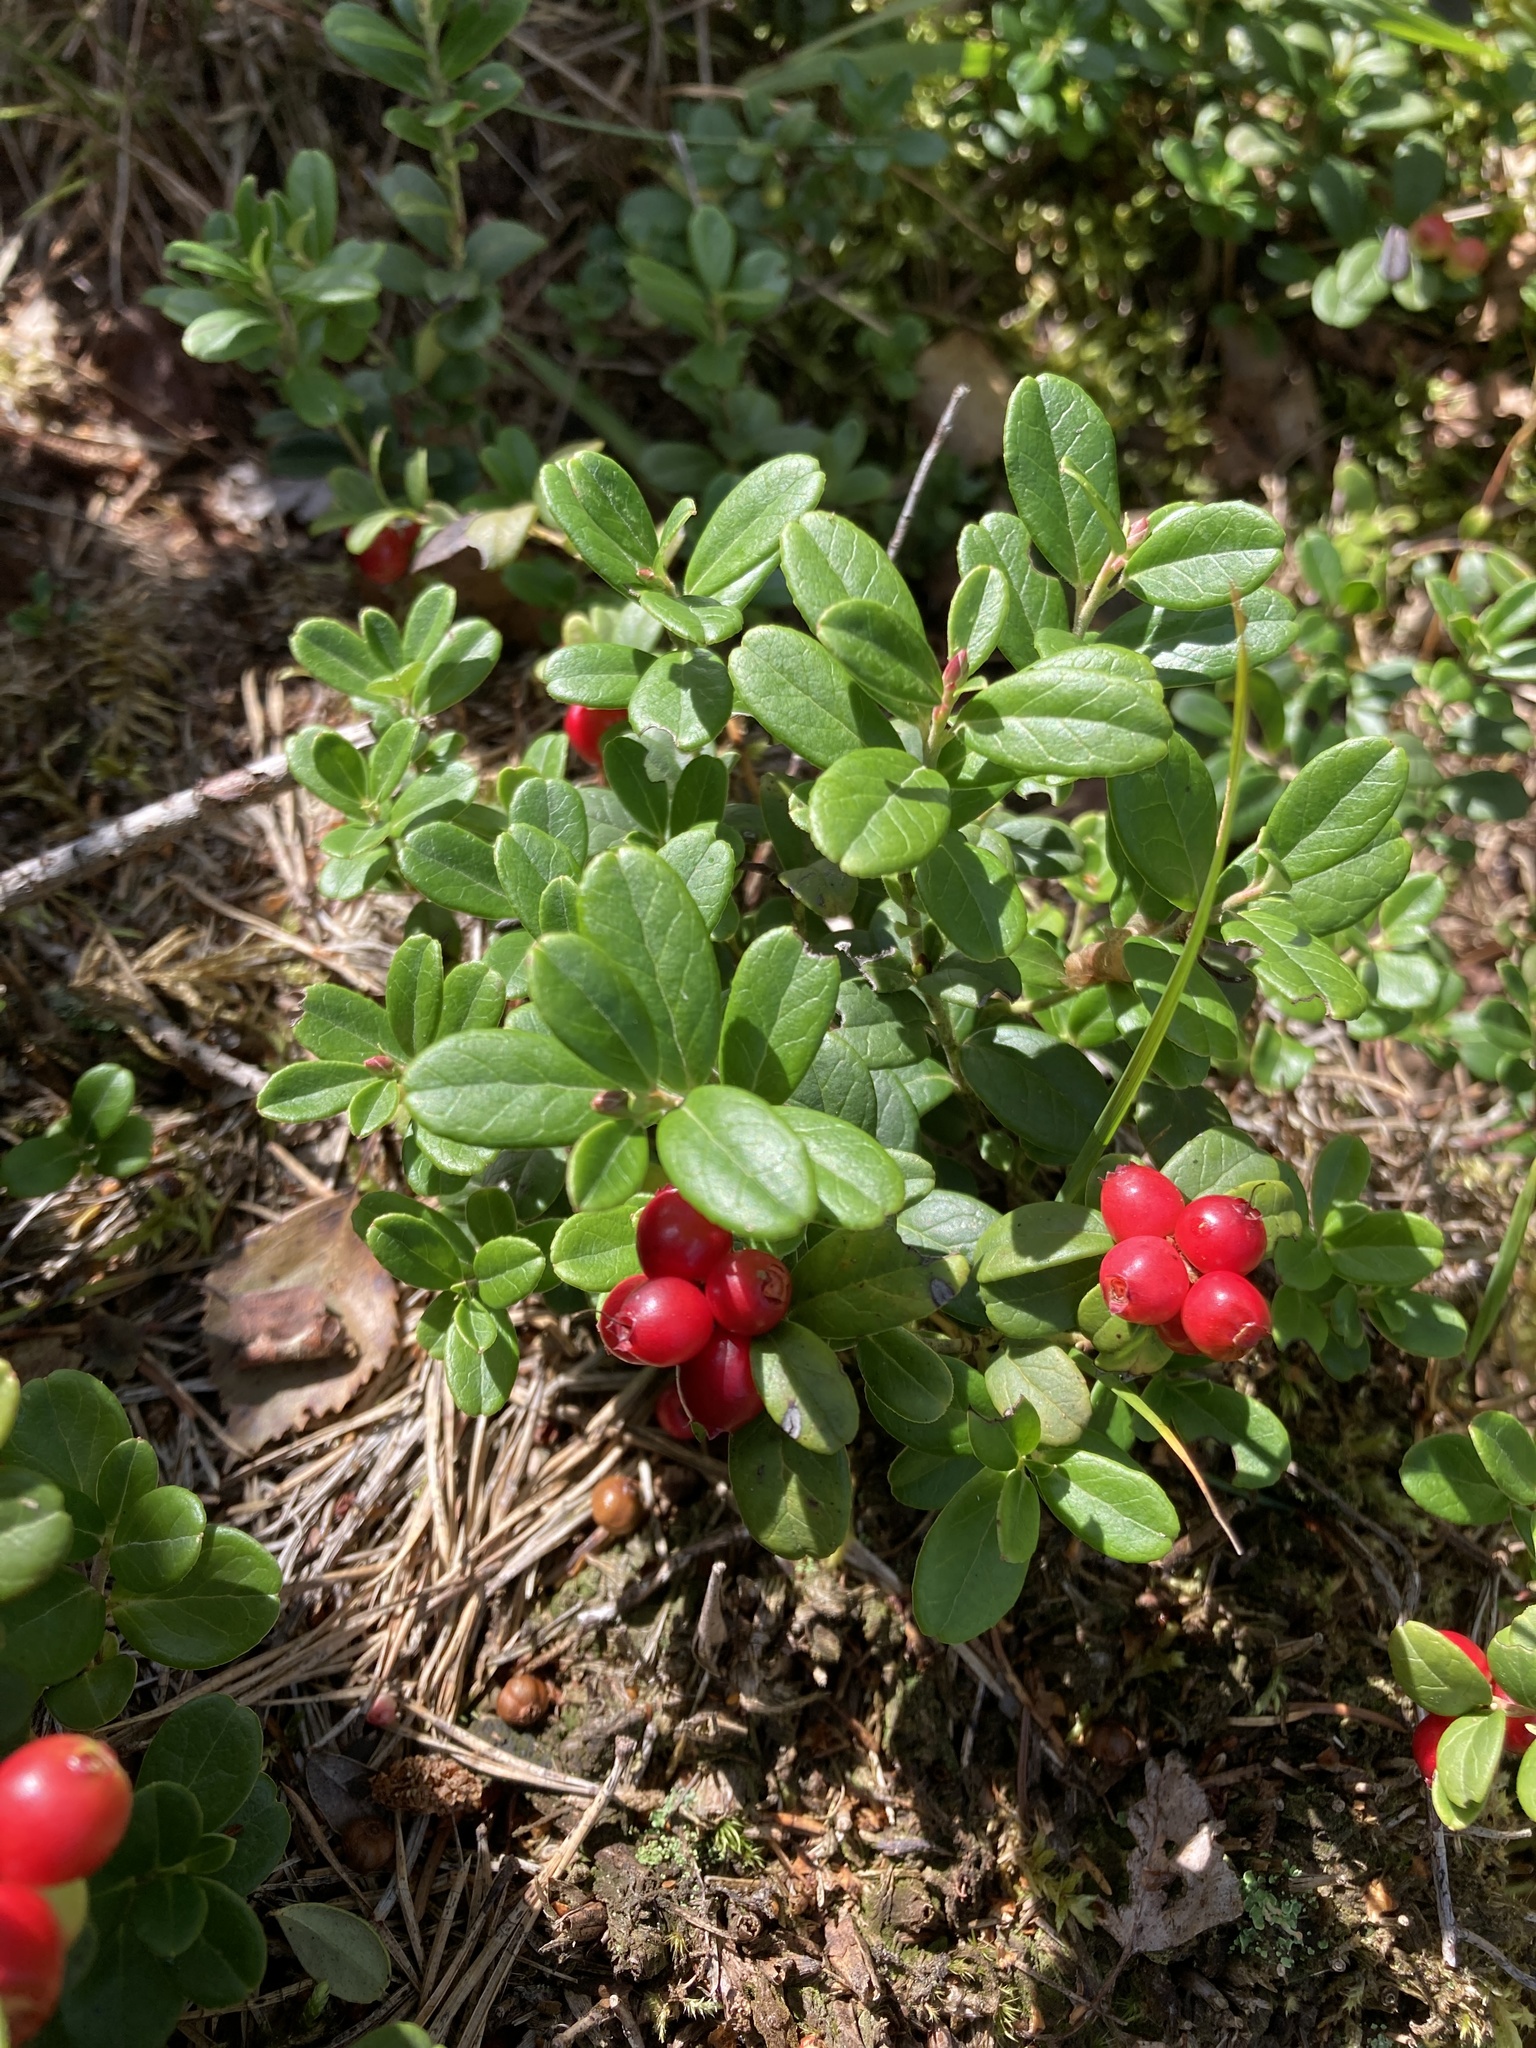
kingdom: Plantae
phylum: Tracheophyta
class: Magnoliopsida
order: Ericales
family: Ericaceae
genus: Vaccinium
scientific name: Vaccinium vitis-idaea
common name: Cowberry
